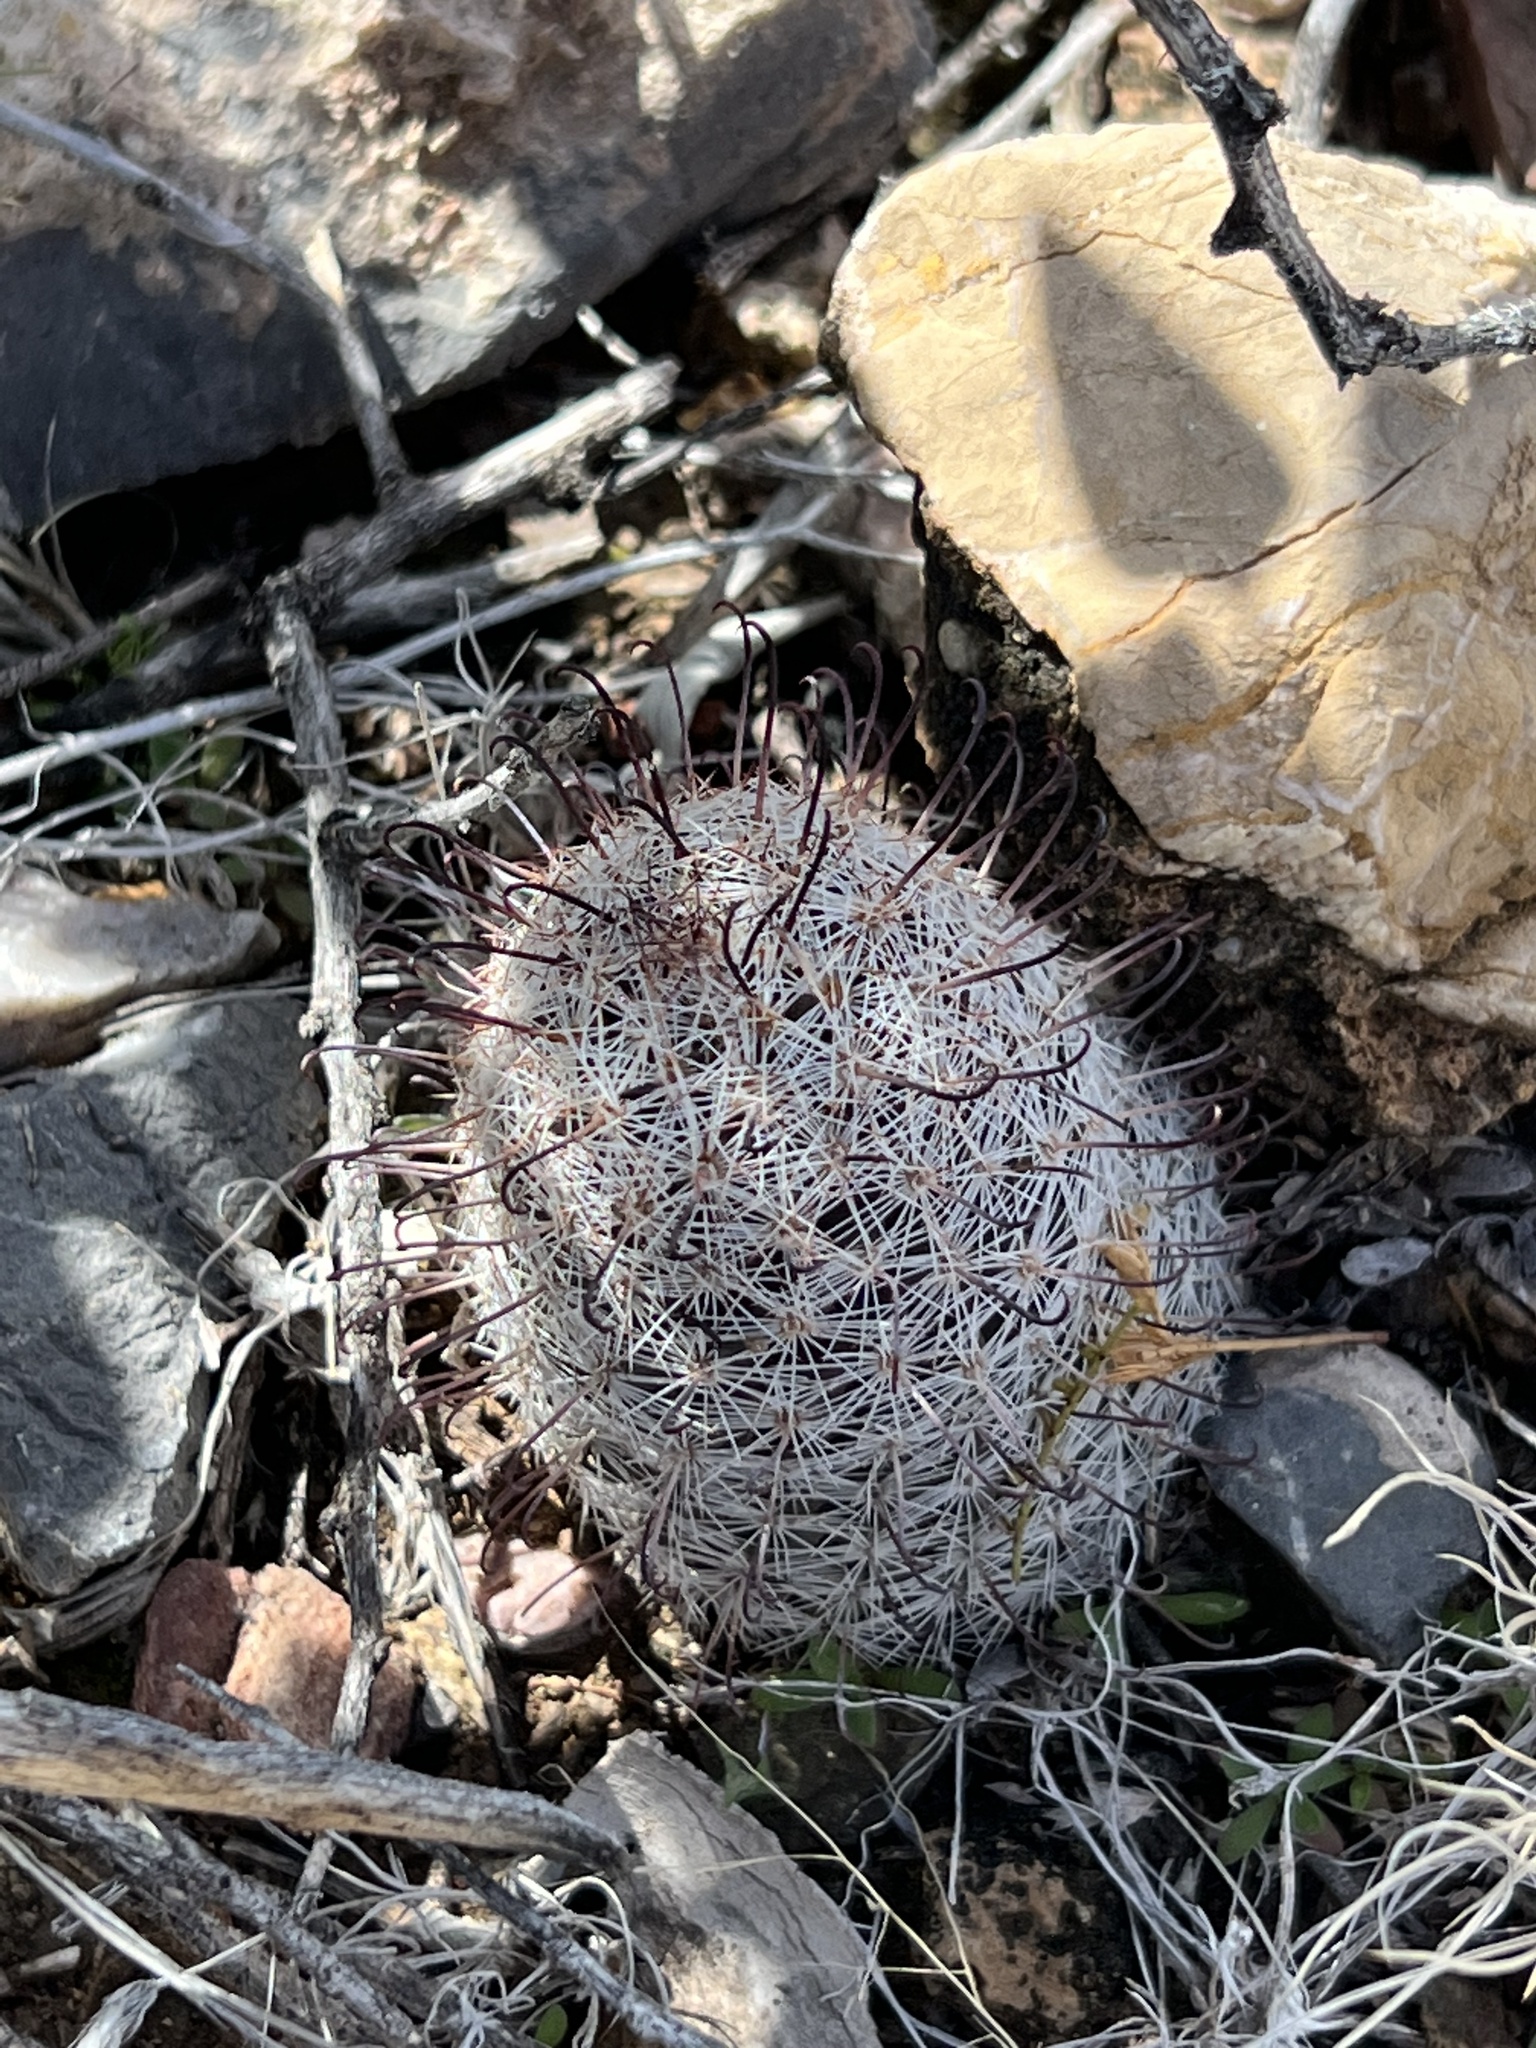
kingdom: Plantae
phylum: Tracheophyta
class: Magnoliopsida
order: Caryophyllales
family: Cactaceae
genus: Cochemiea
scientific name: Cochemiea grahamii
